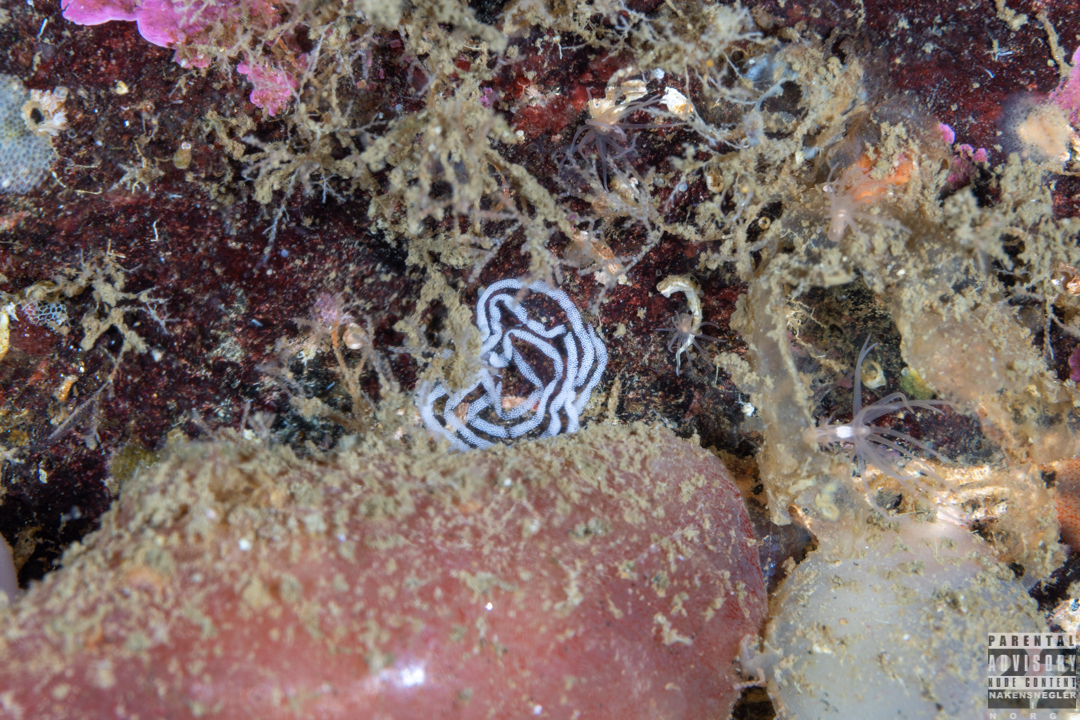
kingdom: Animalia
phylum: Mollusca
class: Gastropoda
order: Nudibranchia
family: Aeolidiidae
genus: Aeolidiella
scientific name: Aeolidiella glauca
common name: Orange-brown aeolid
